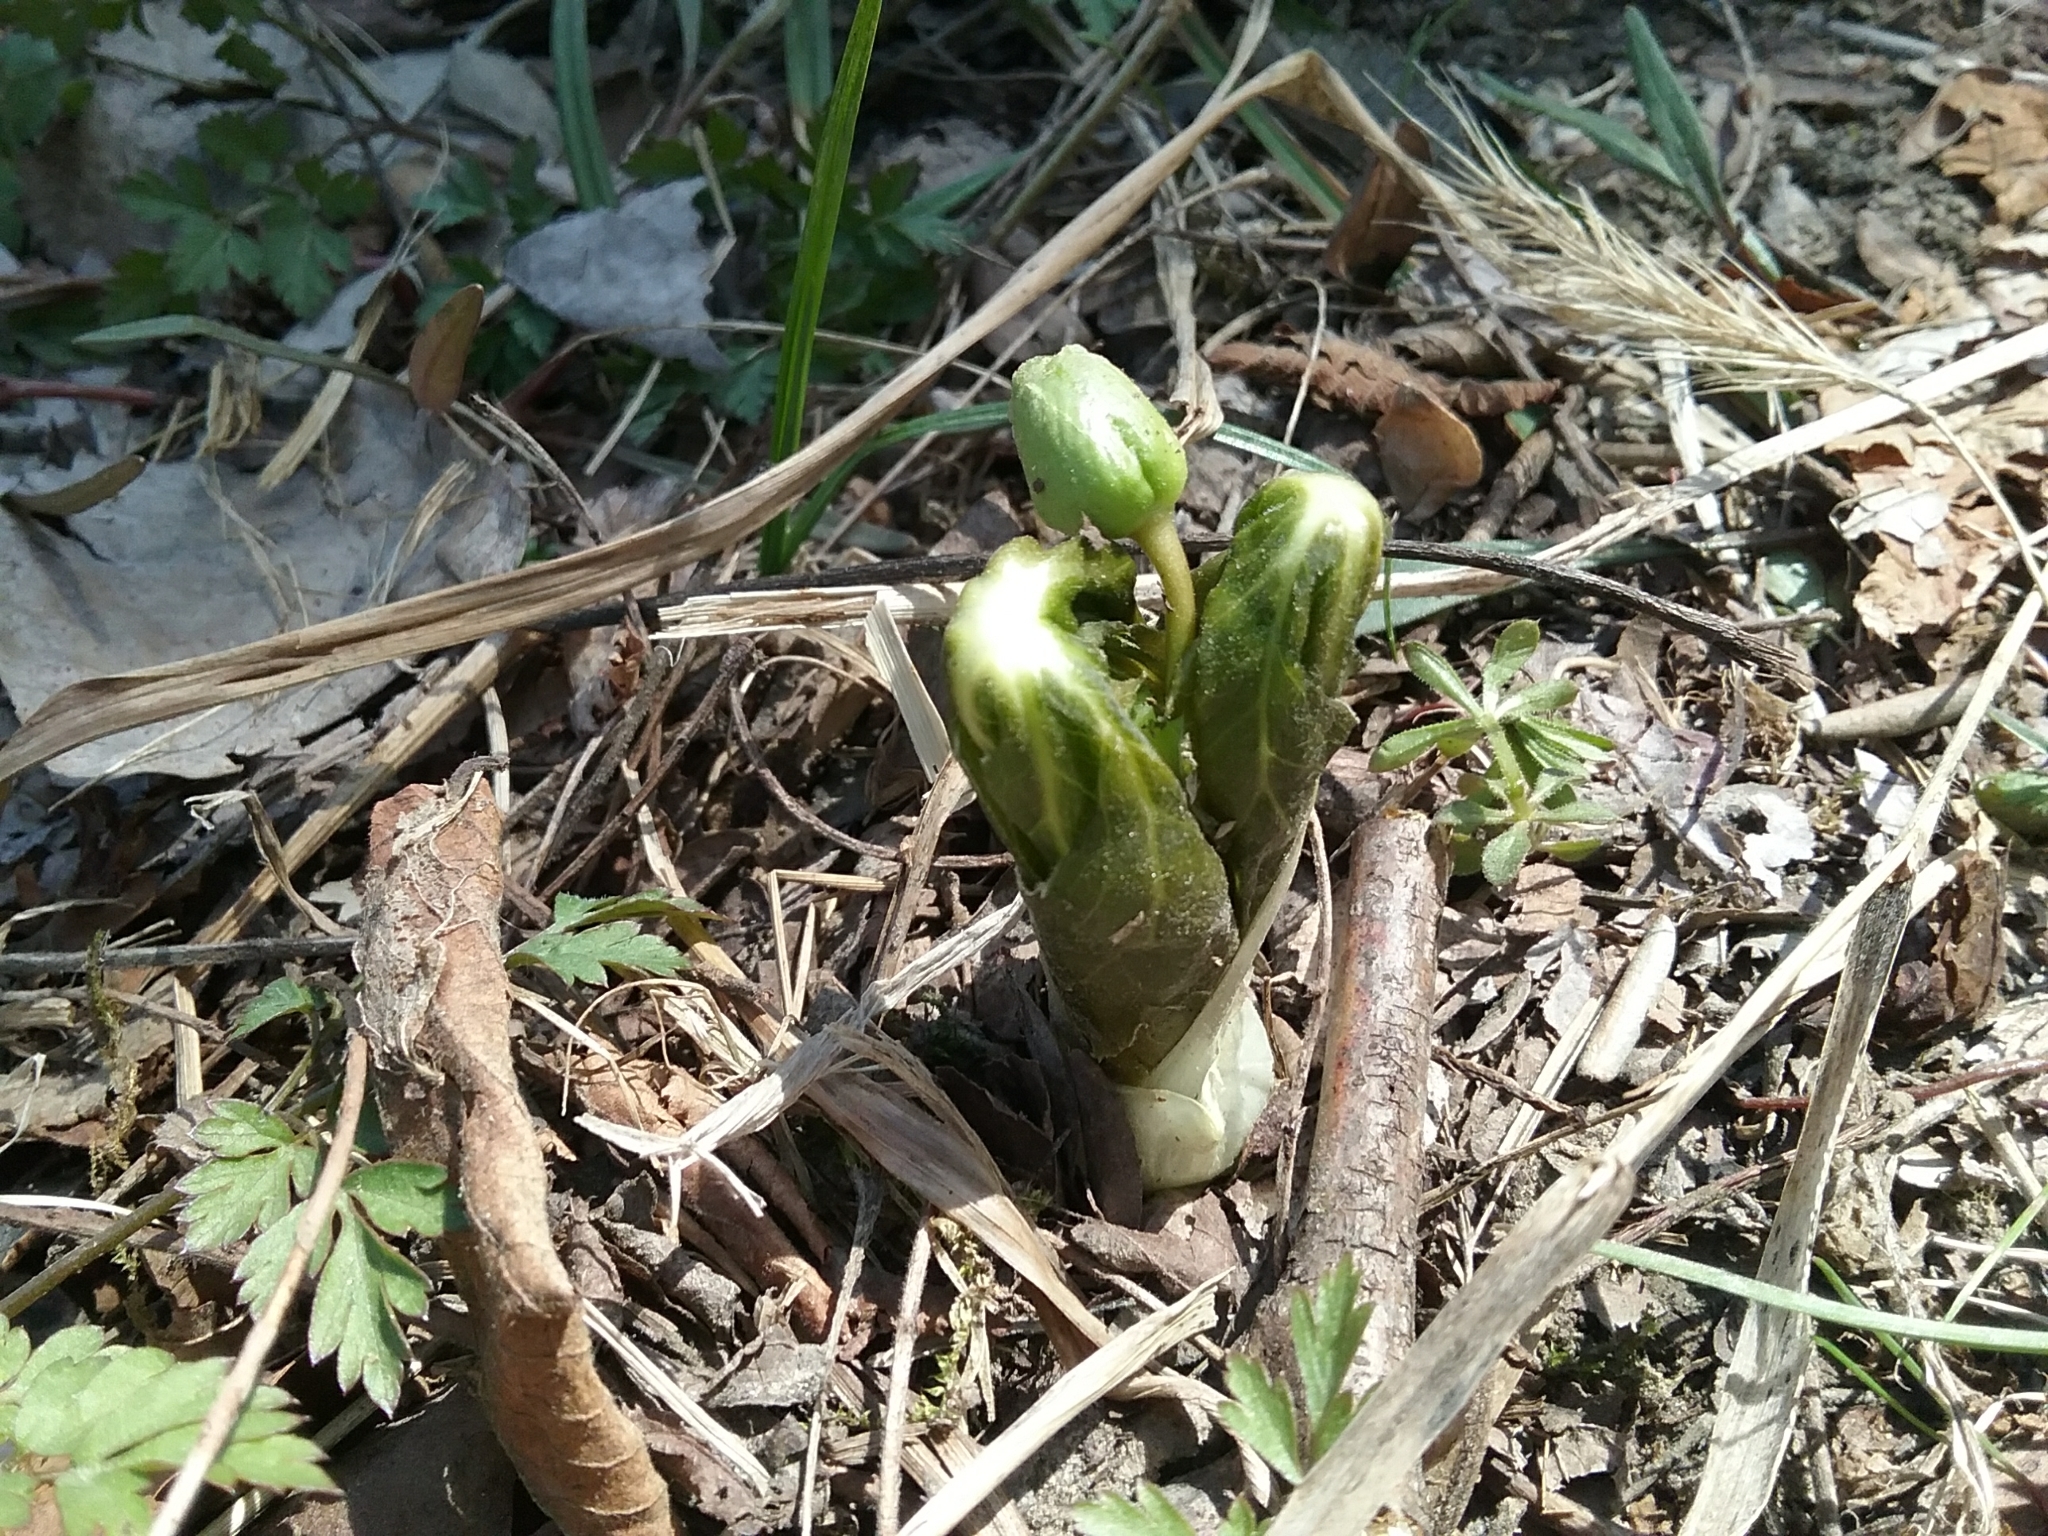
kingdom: Plantae
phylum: Tracheophyta
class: Magnoliopsida
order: Ranunculales
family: Berberidaceae
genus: Podophyllum
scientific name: Podophyllum peltatum
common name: Wild mandrake
